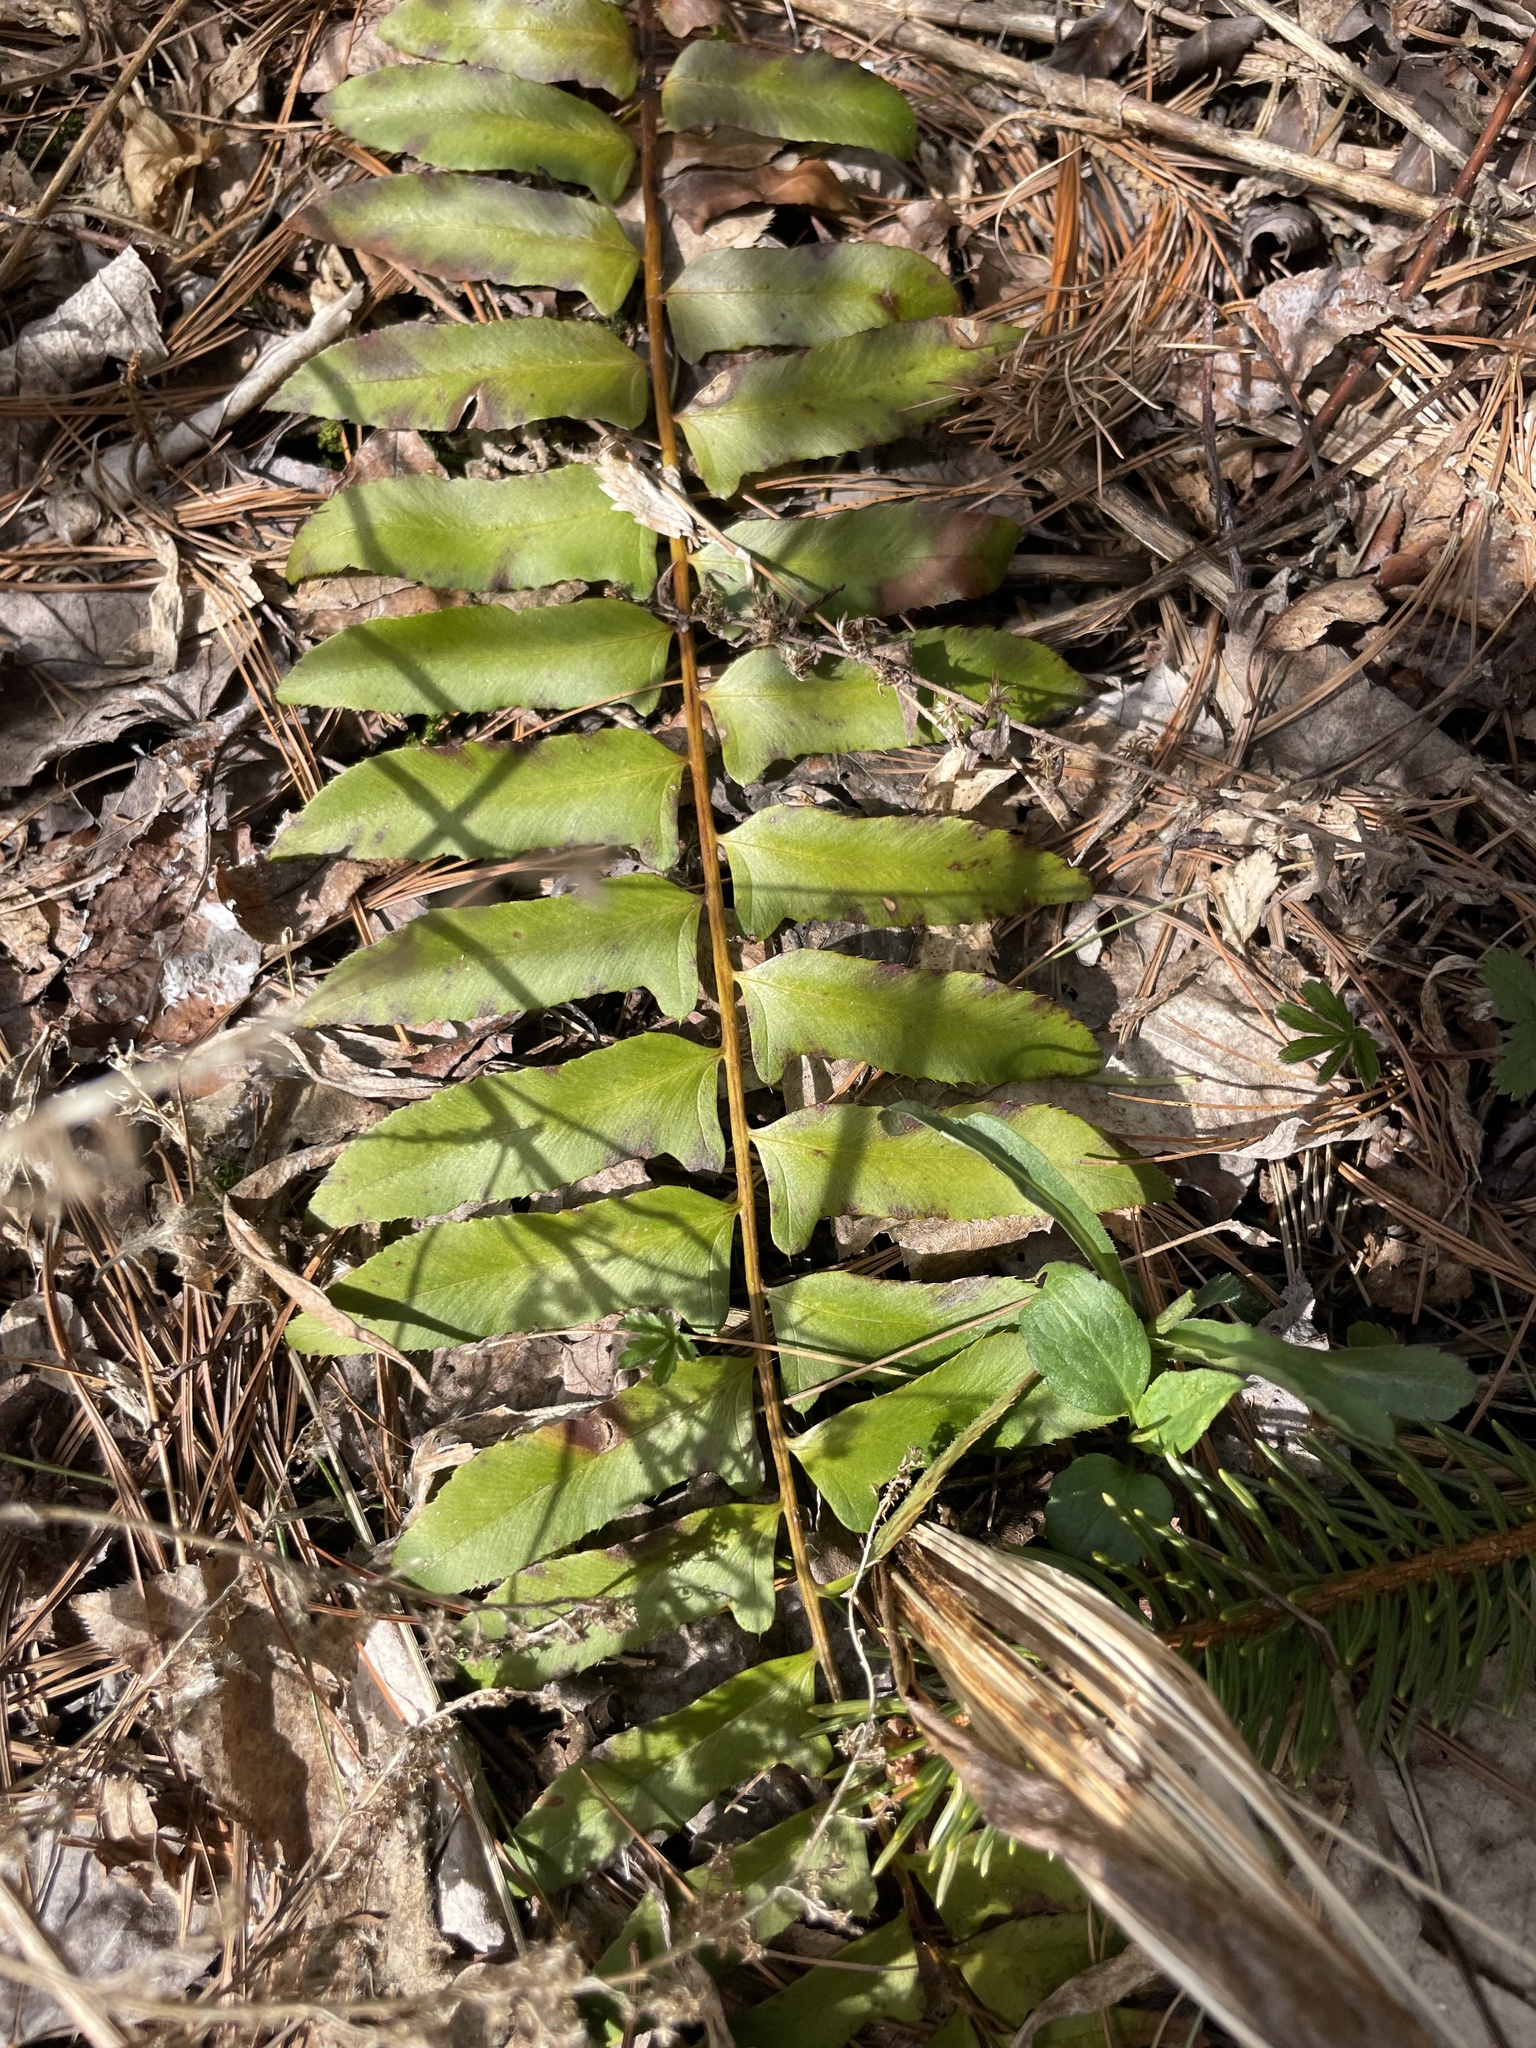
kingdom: Plantae
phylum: Tracheophyta
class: Polypodiopsida
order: Polypodiales
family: Dryopteridaceae
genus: Polystichum
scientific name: Polystichum acrostichoides
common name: Christmas fern
